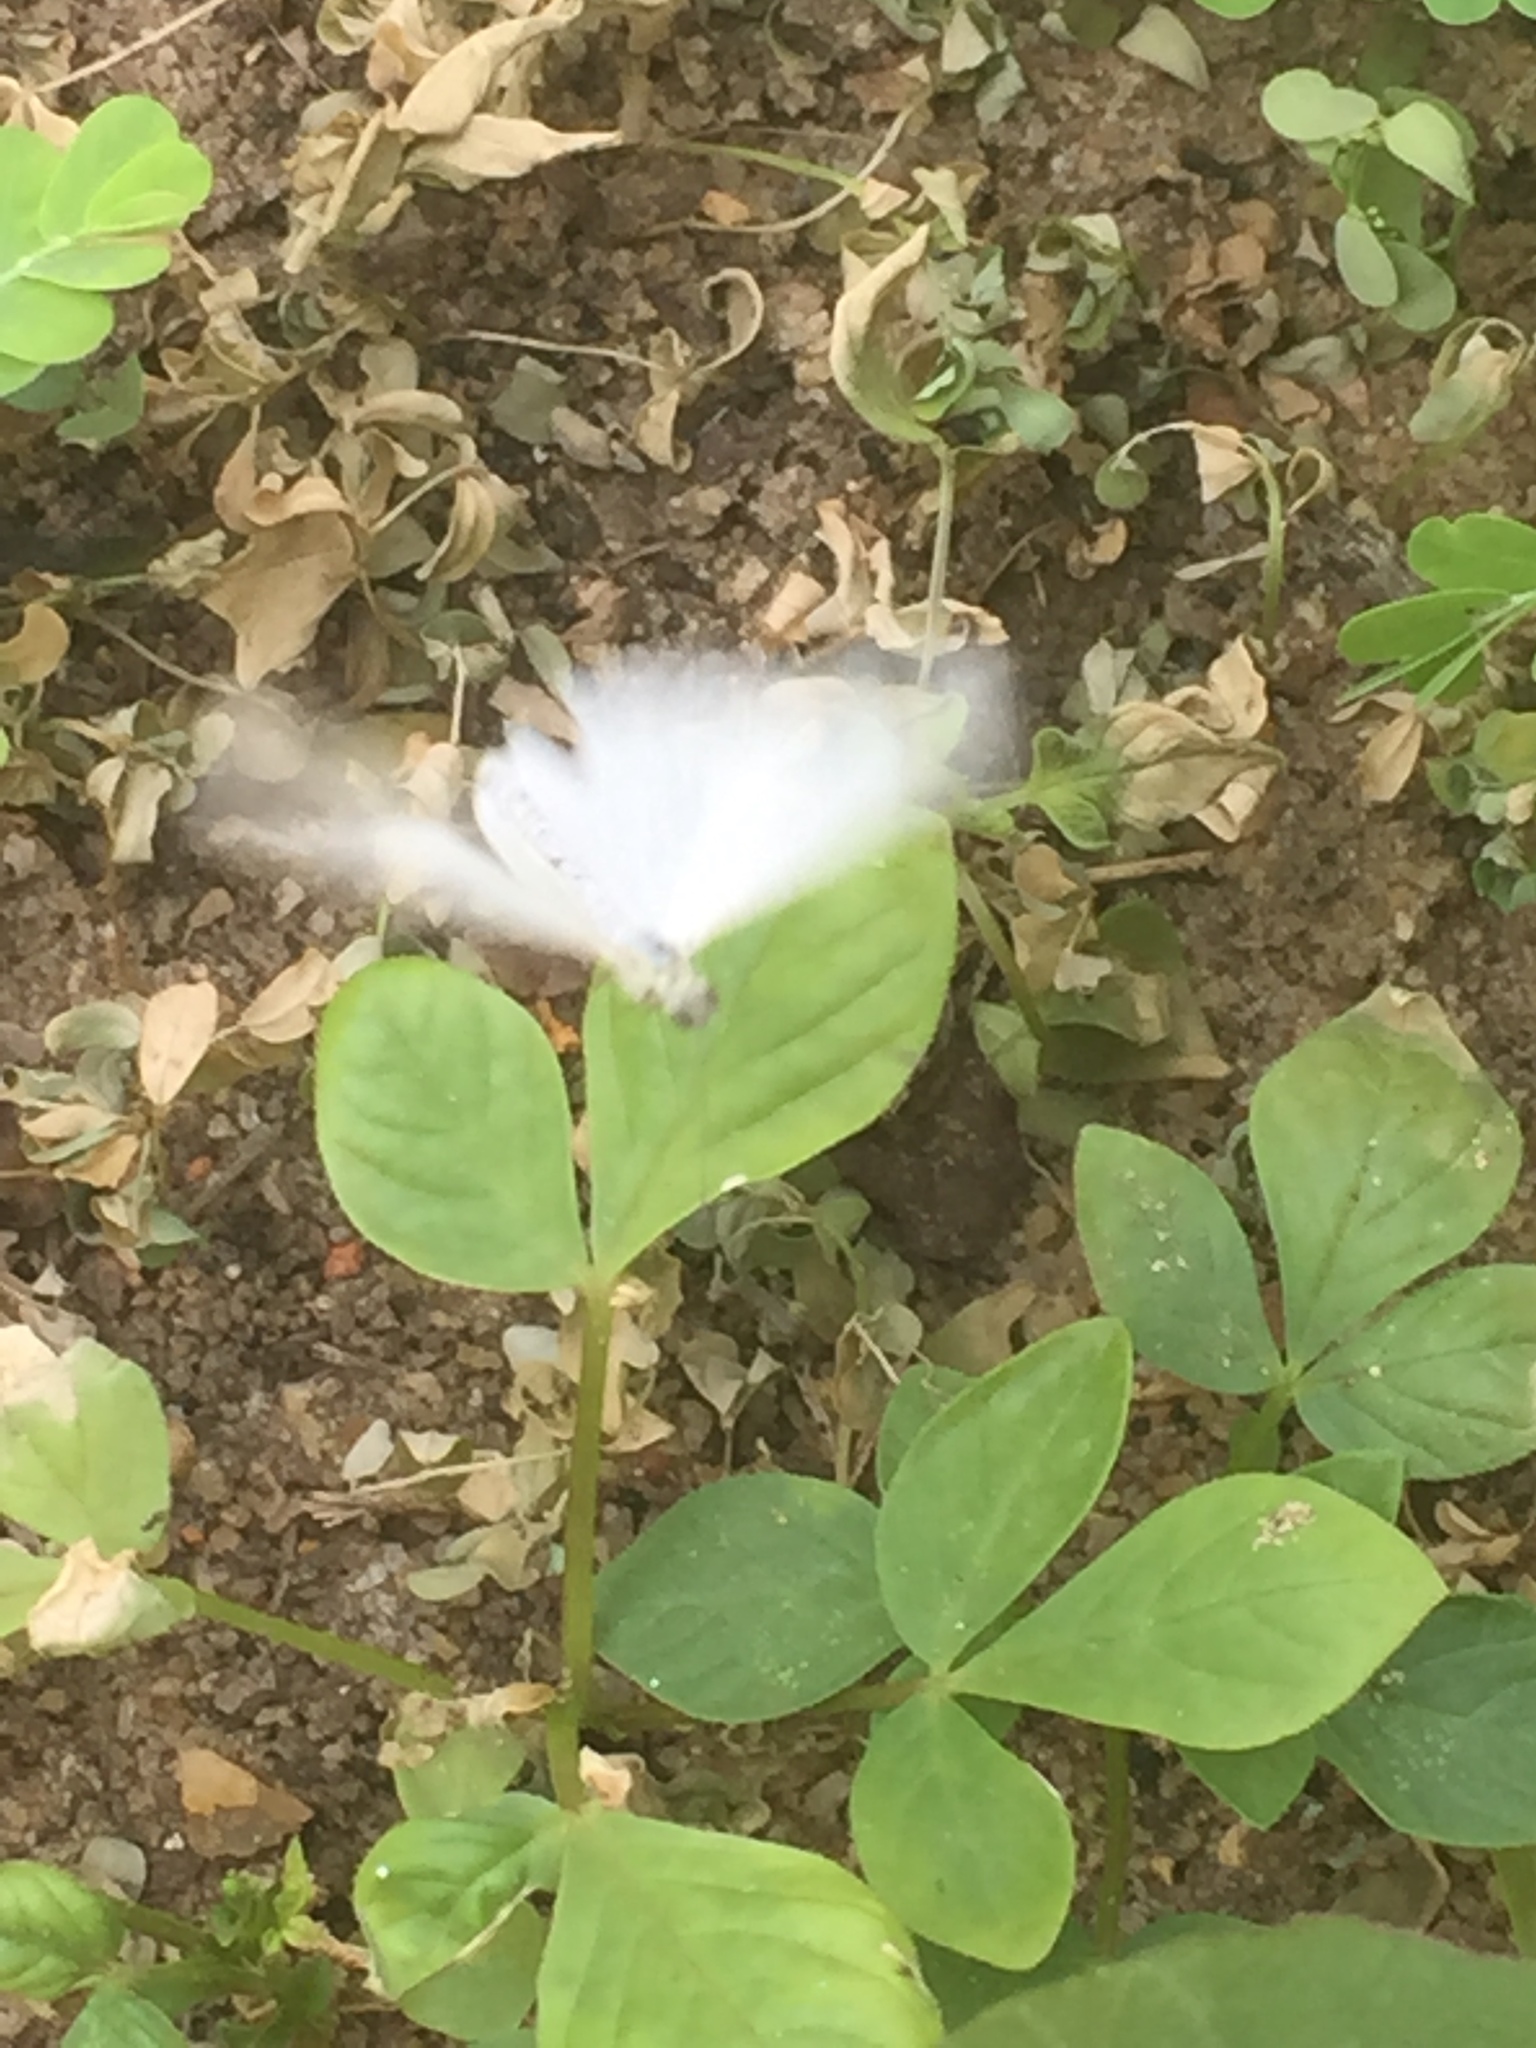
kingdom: Animalia
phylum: Arthropoda
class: Insecta
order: Lepidoptera
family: Pieridae
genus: Leptosia
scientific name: Leptosia nina
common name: Psyche
